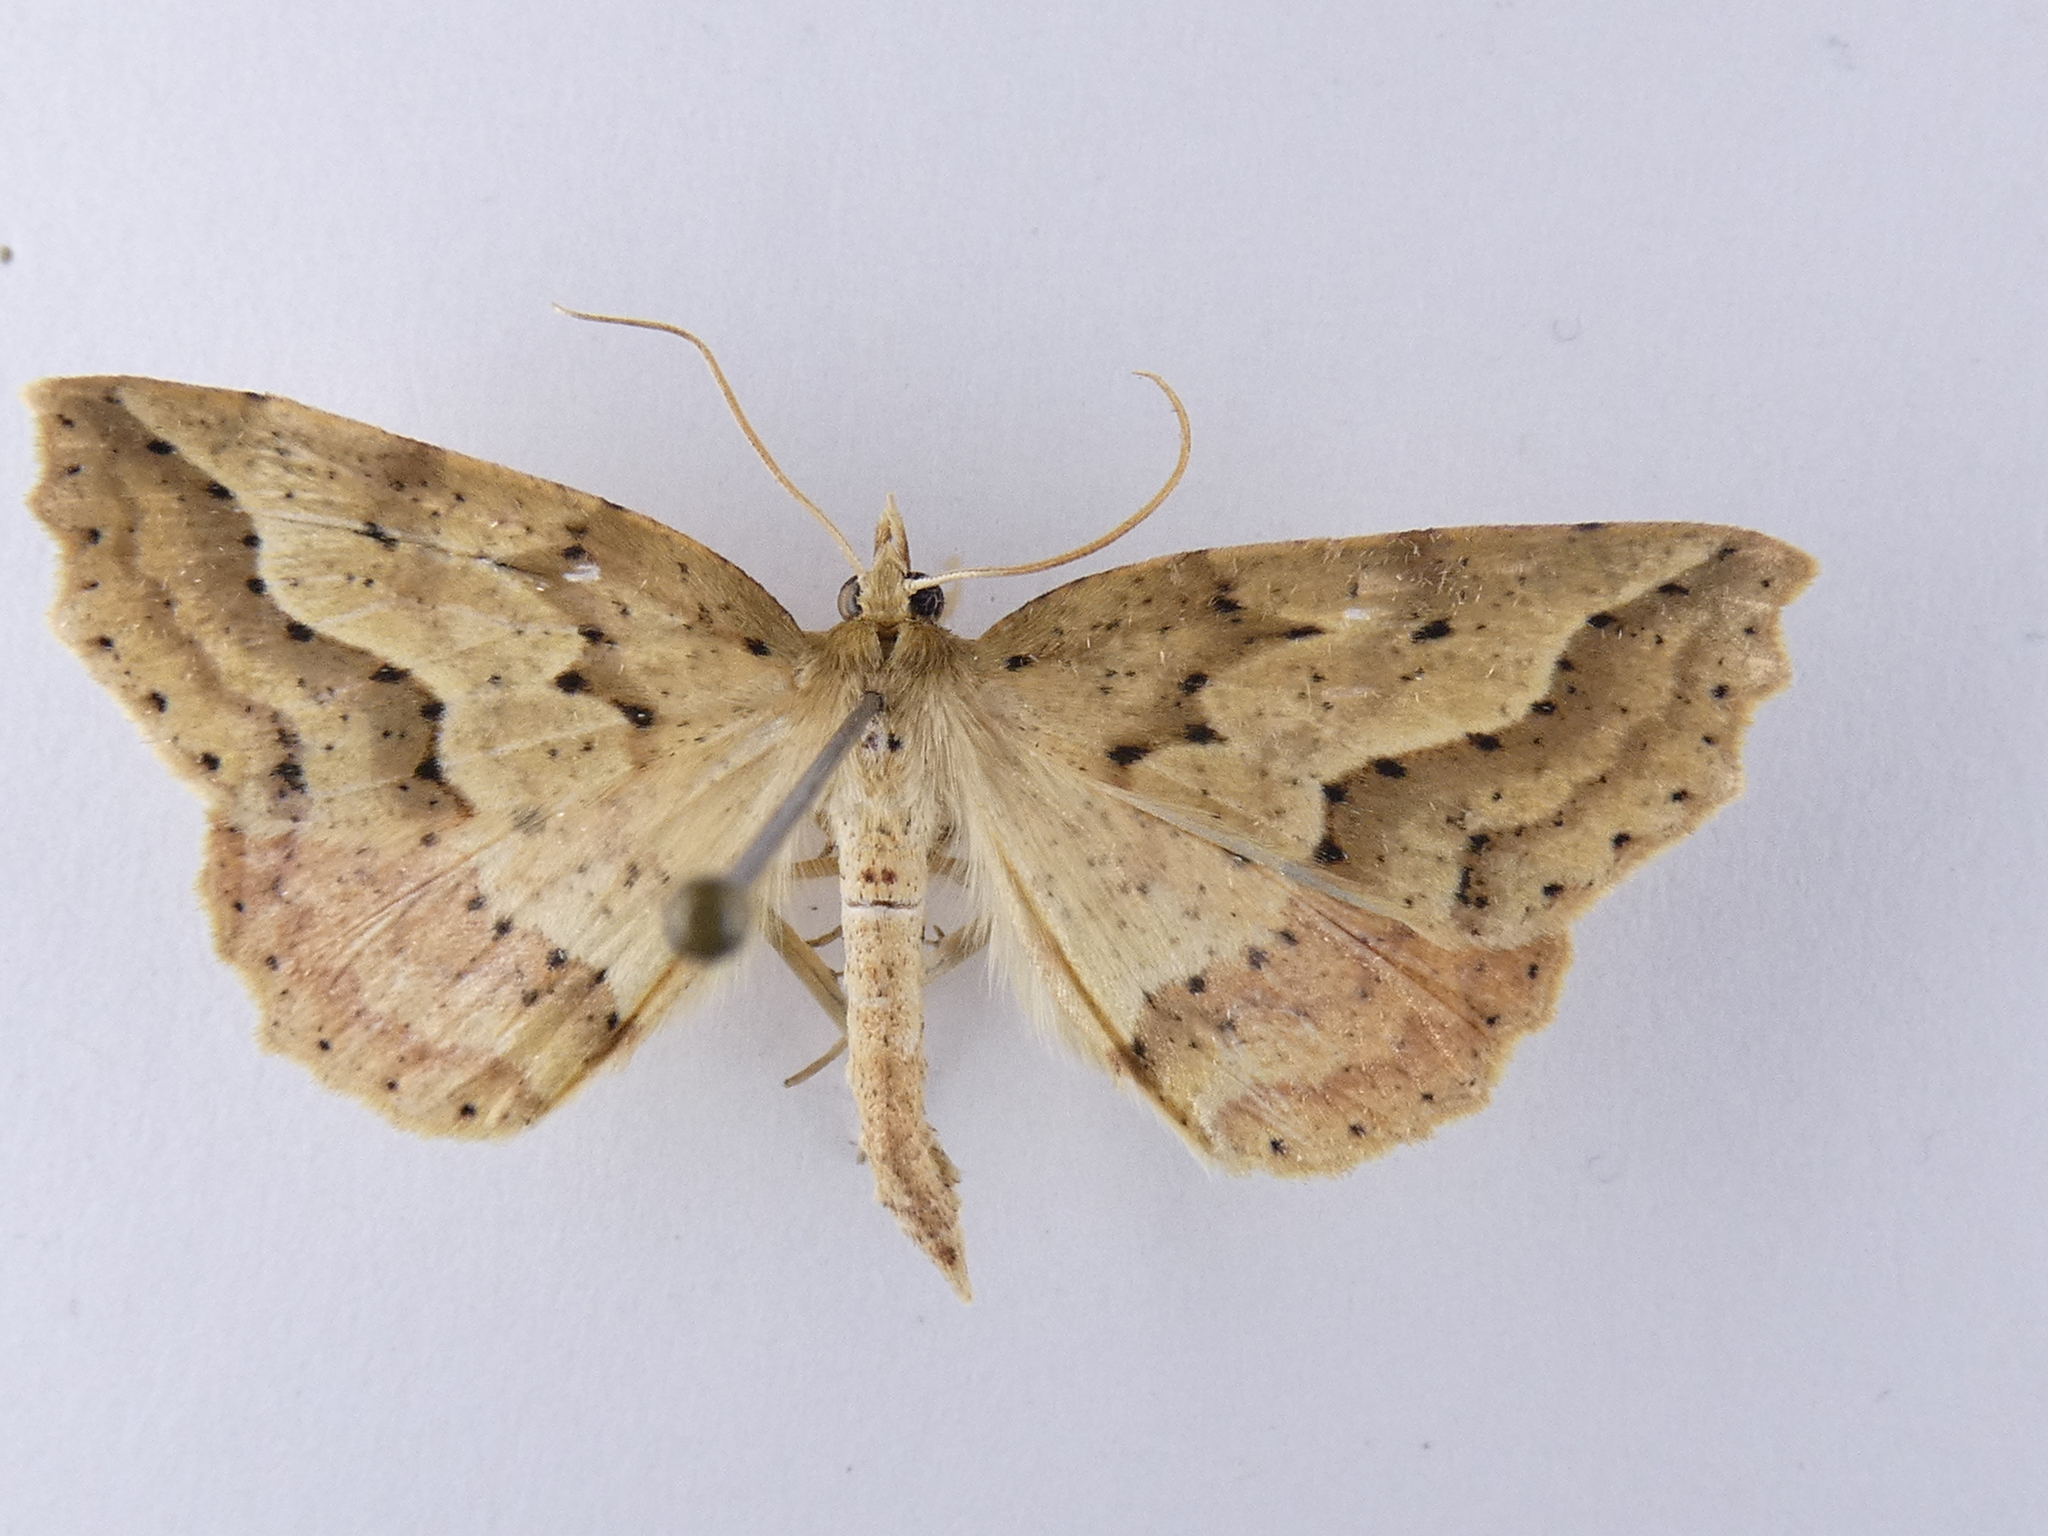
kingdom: Animalia
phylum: Arthropoda
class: Insecta
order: Lepidoptera
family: Geometridae
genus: Ischalis
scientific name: Ischalis variabilis
